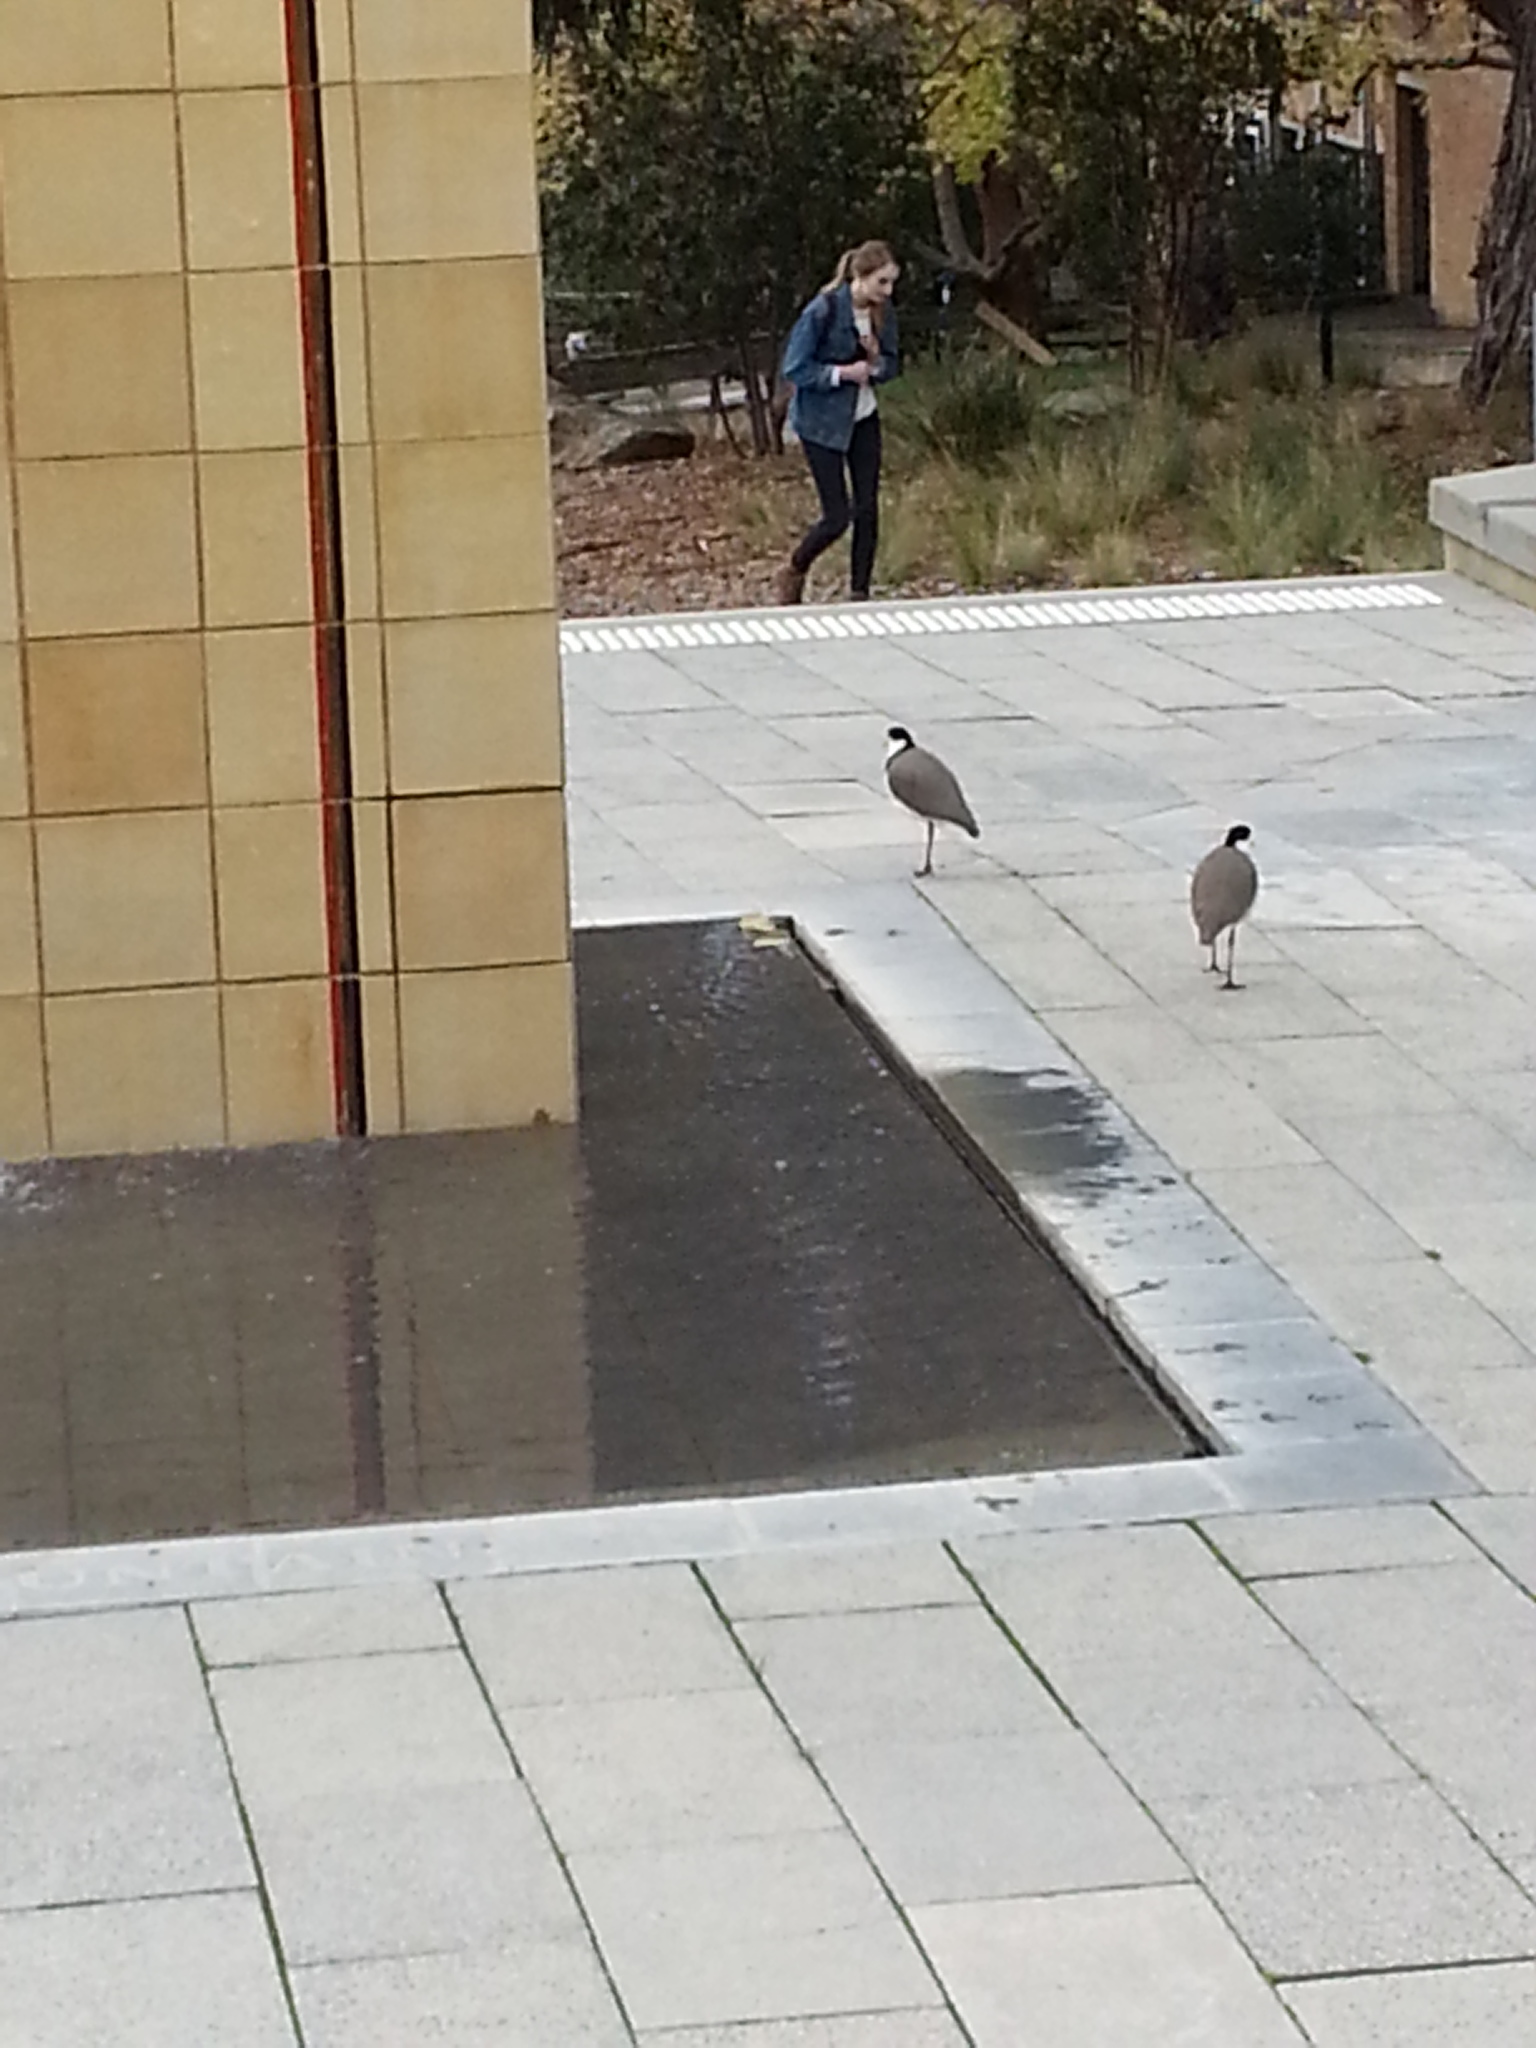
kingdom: Animalia
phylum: Chordata
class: Aves
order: Charadriiformes
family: Charadriidae
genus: Vanellus
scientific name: Vanellus miles
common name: Masked lapwing
